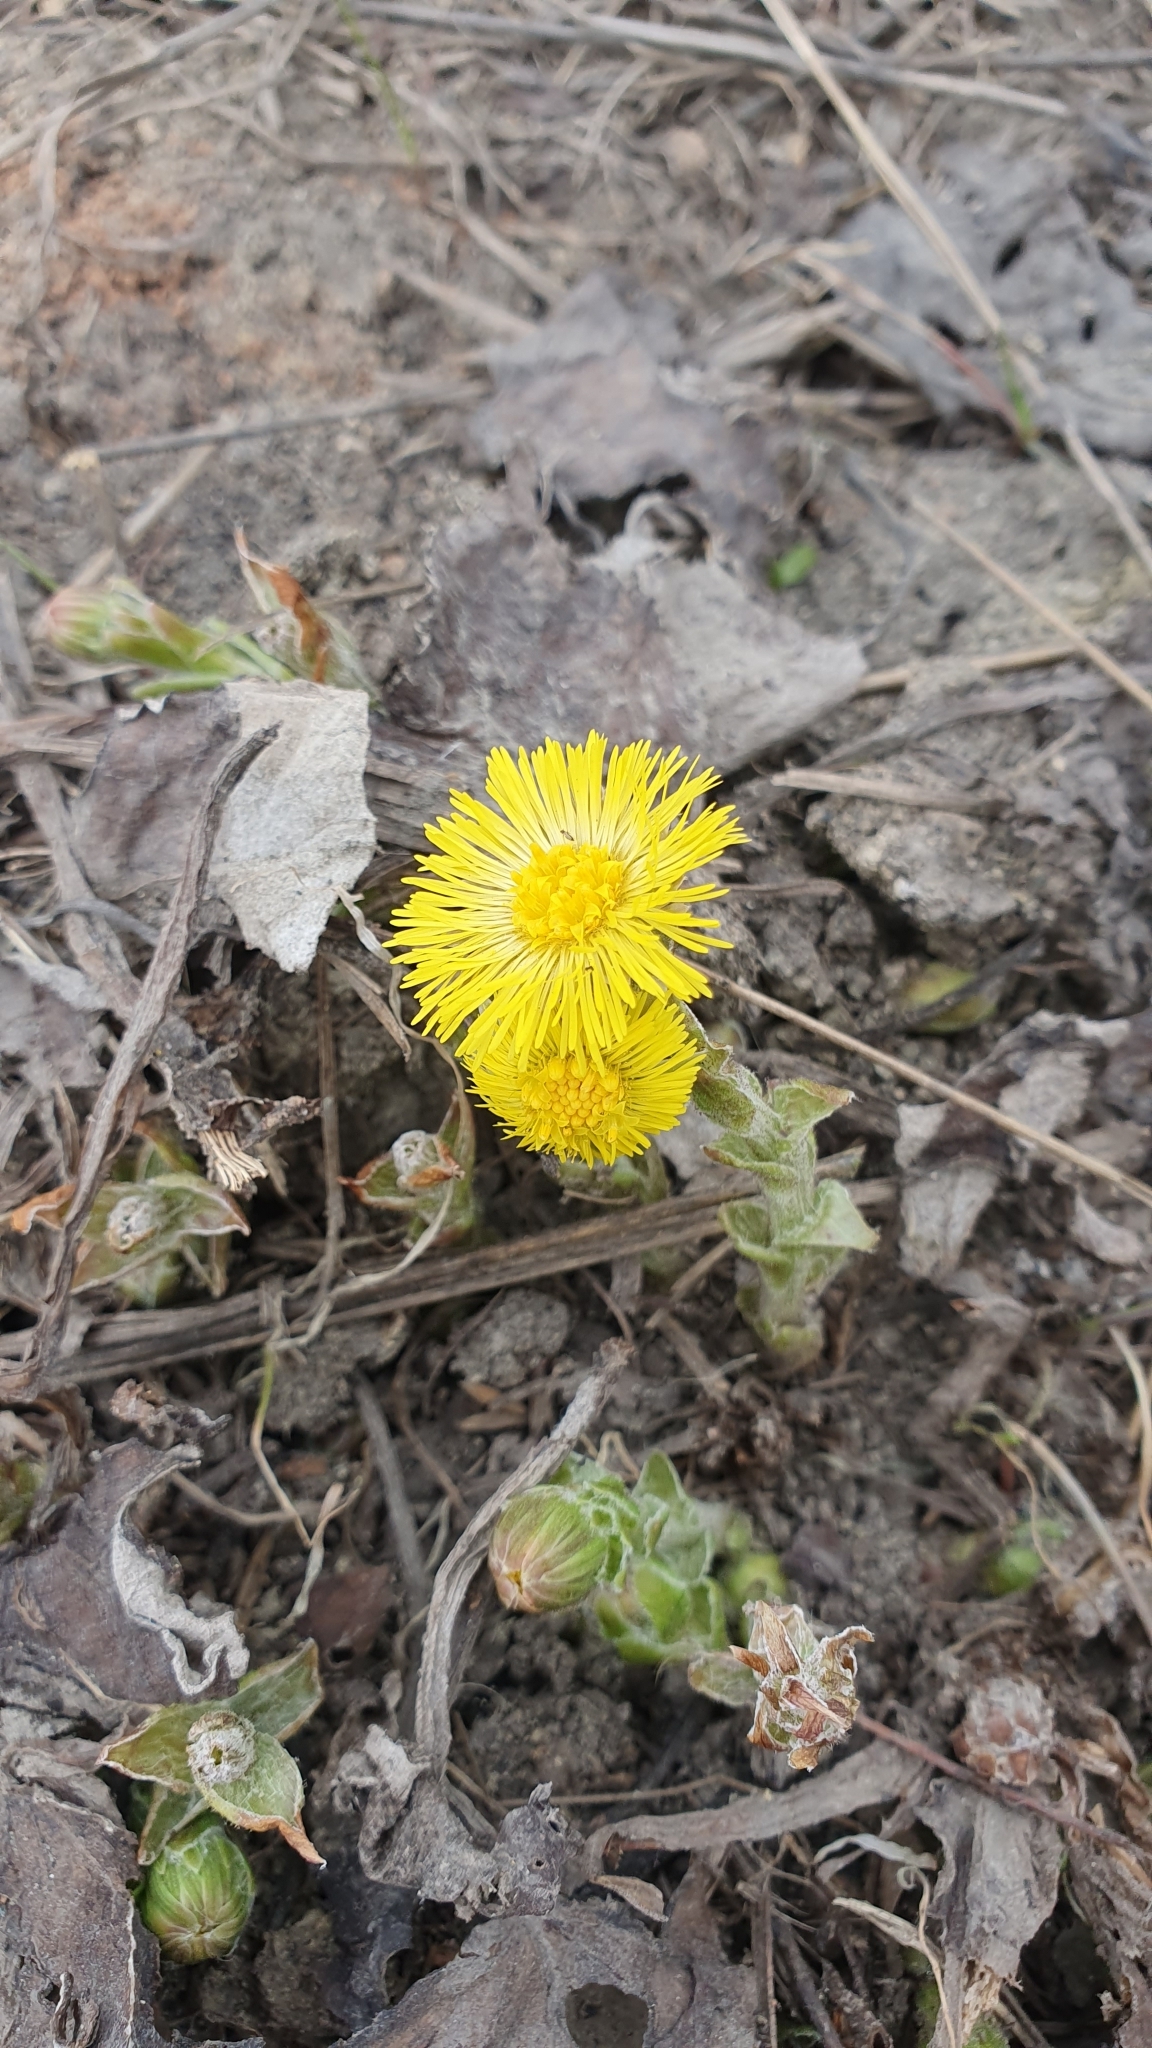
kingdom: Plantae
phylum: Tracheophyta
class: Magnoliopsida
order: Asterales
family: Asteraceae
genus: Tussilago
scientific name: Tussilago farfara
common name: Coltsfoot
